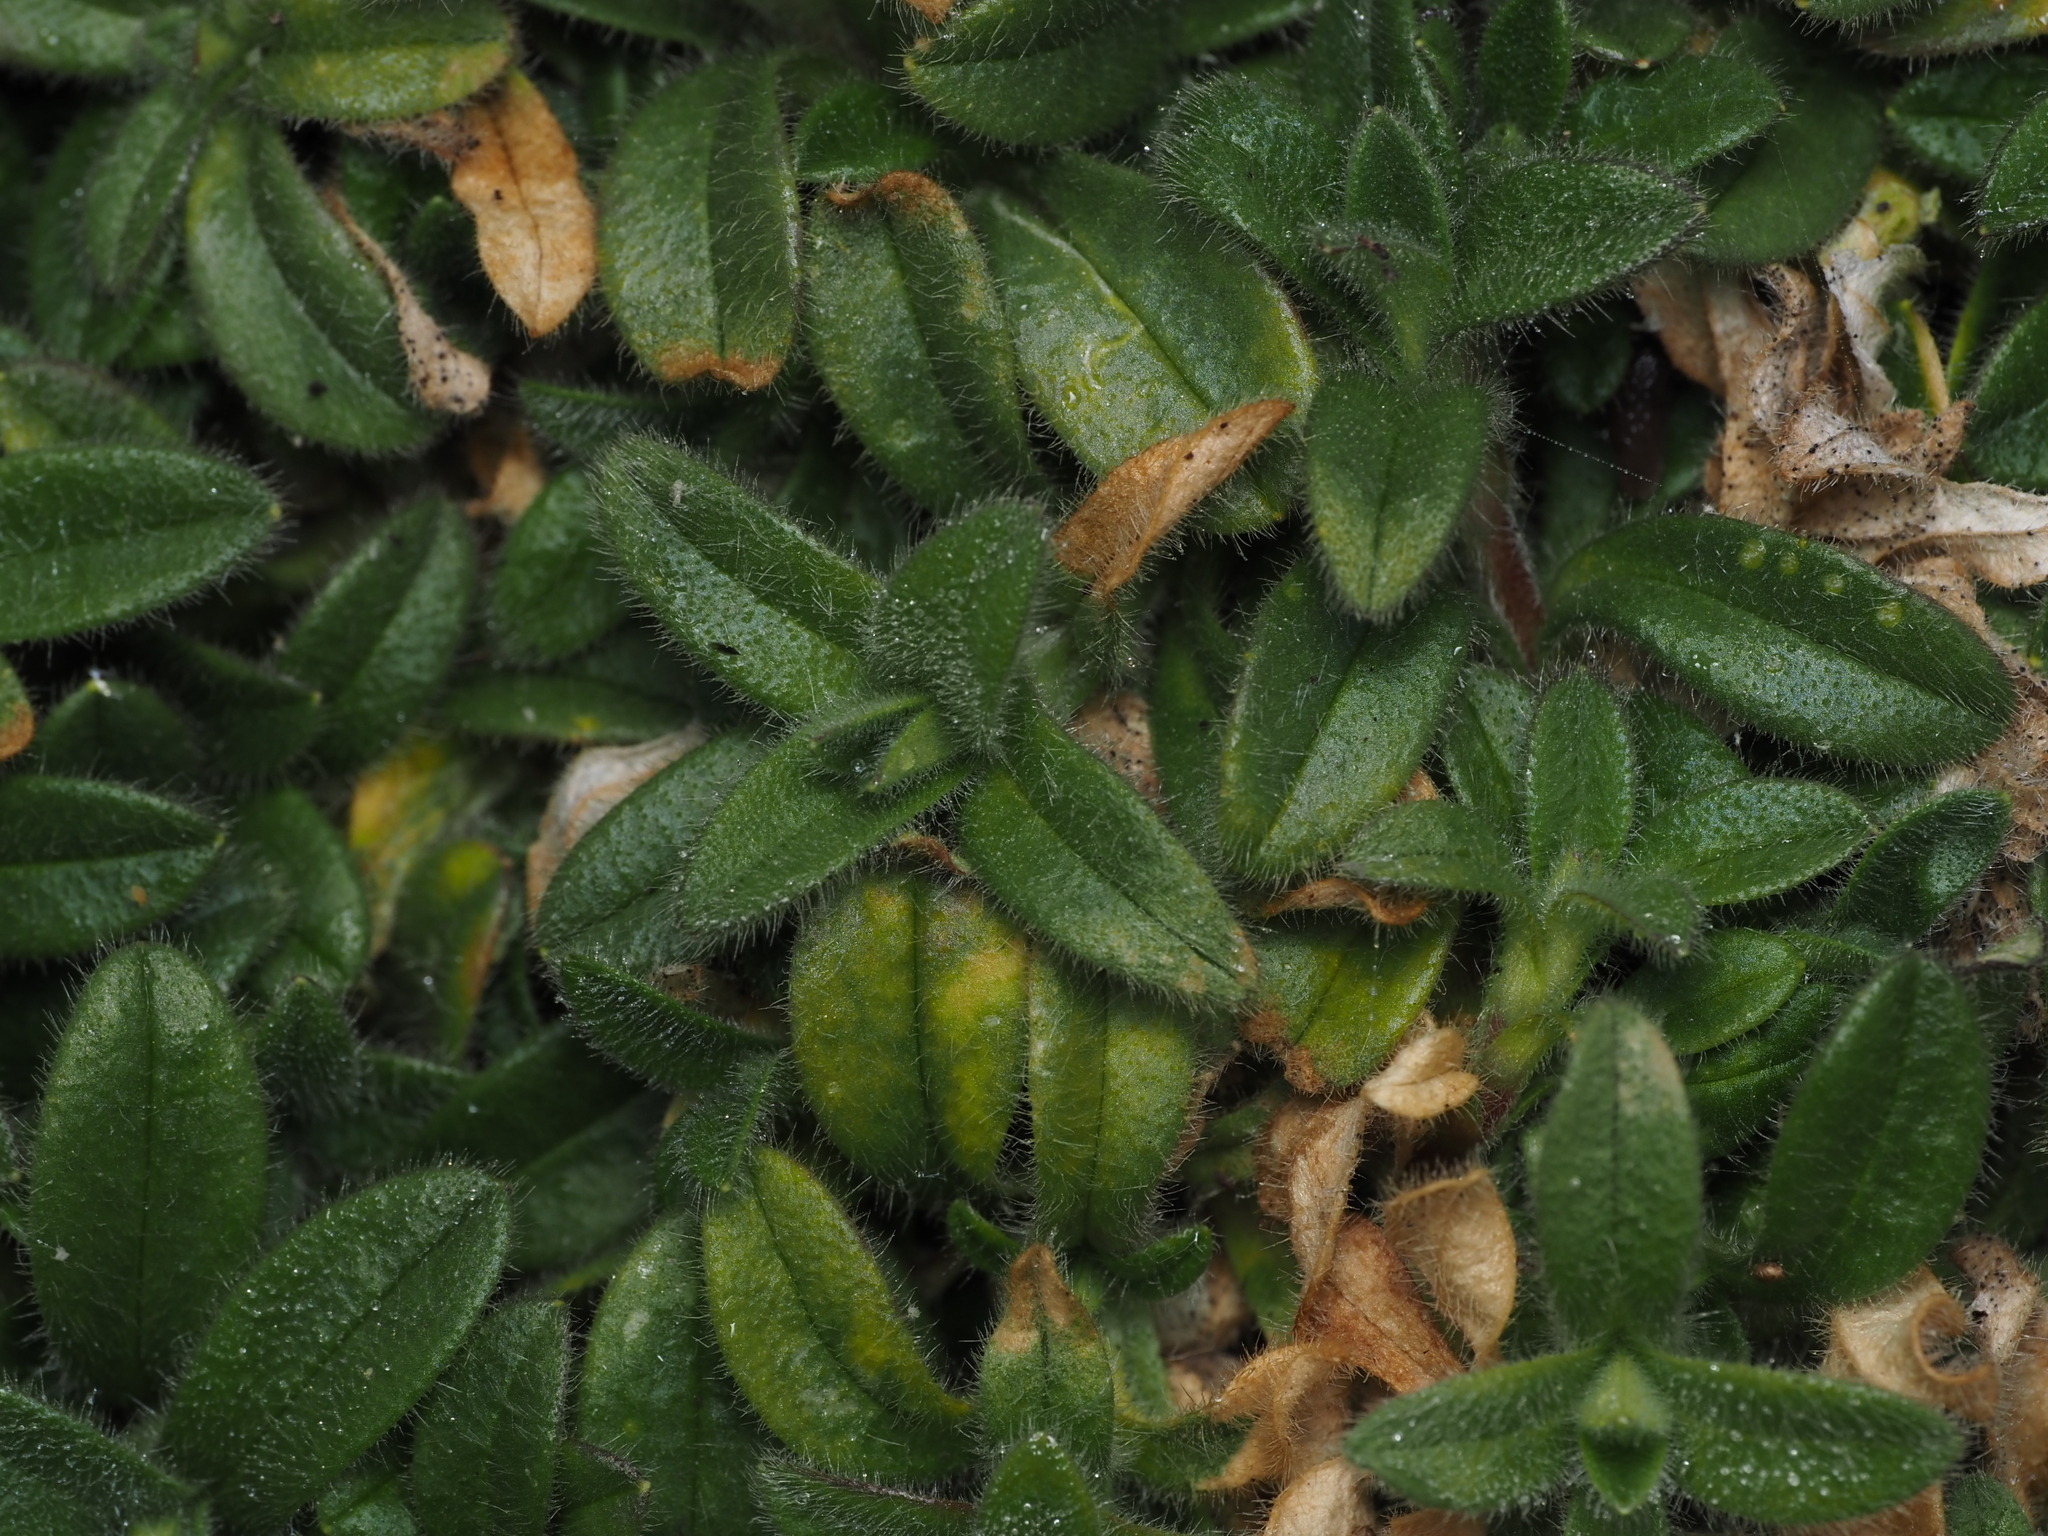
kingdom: Plantae
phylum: Tracheophyta
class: Magnoliopsida
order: Caryophyllales
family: Caryophyllaceae
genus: Cerastium
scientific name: Cerastium fontanum
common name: Common mouse-ear
